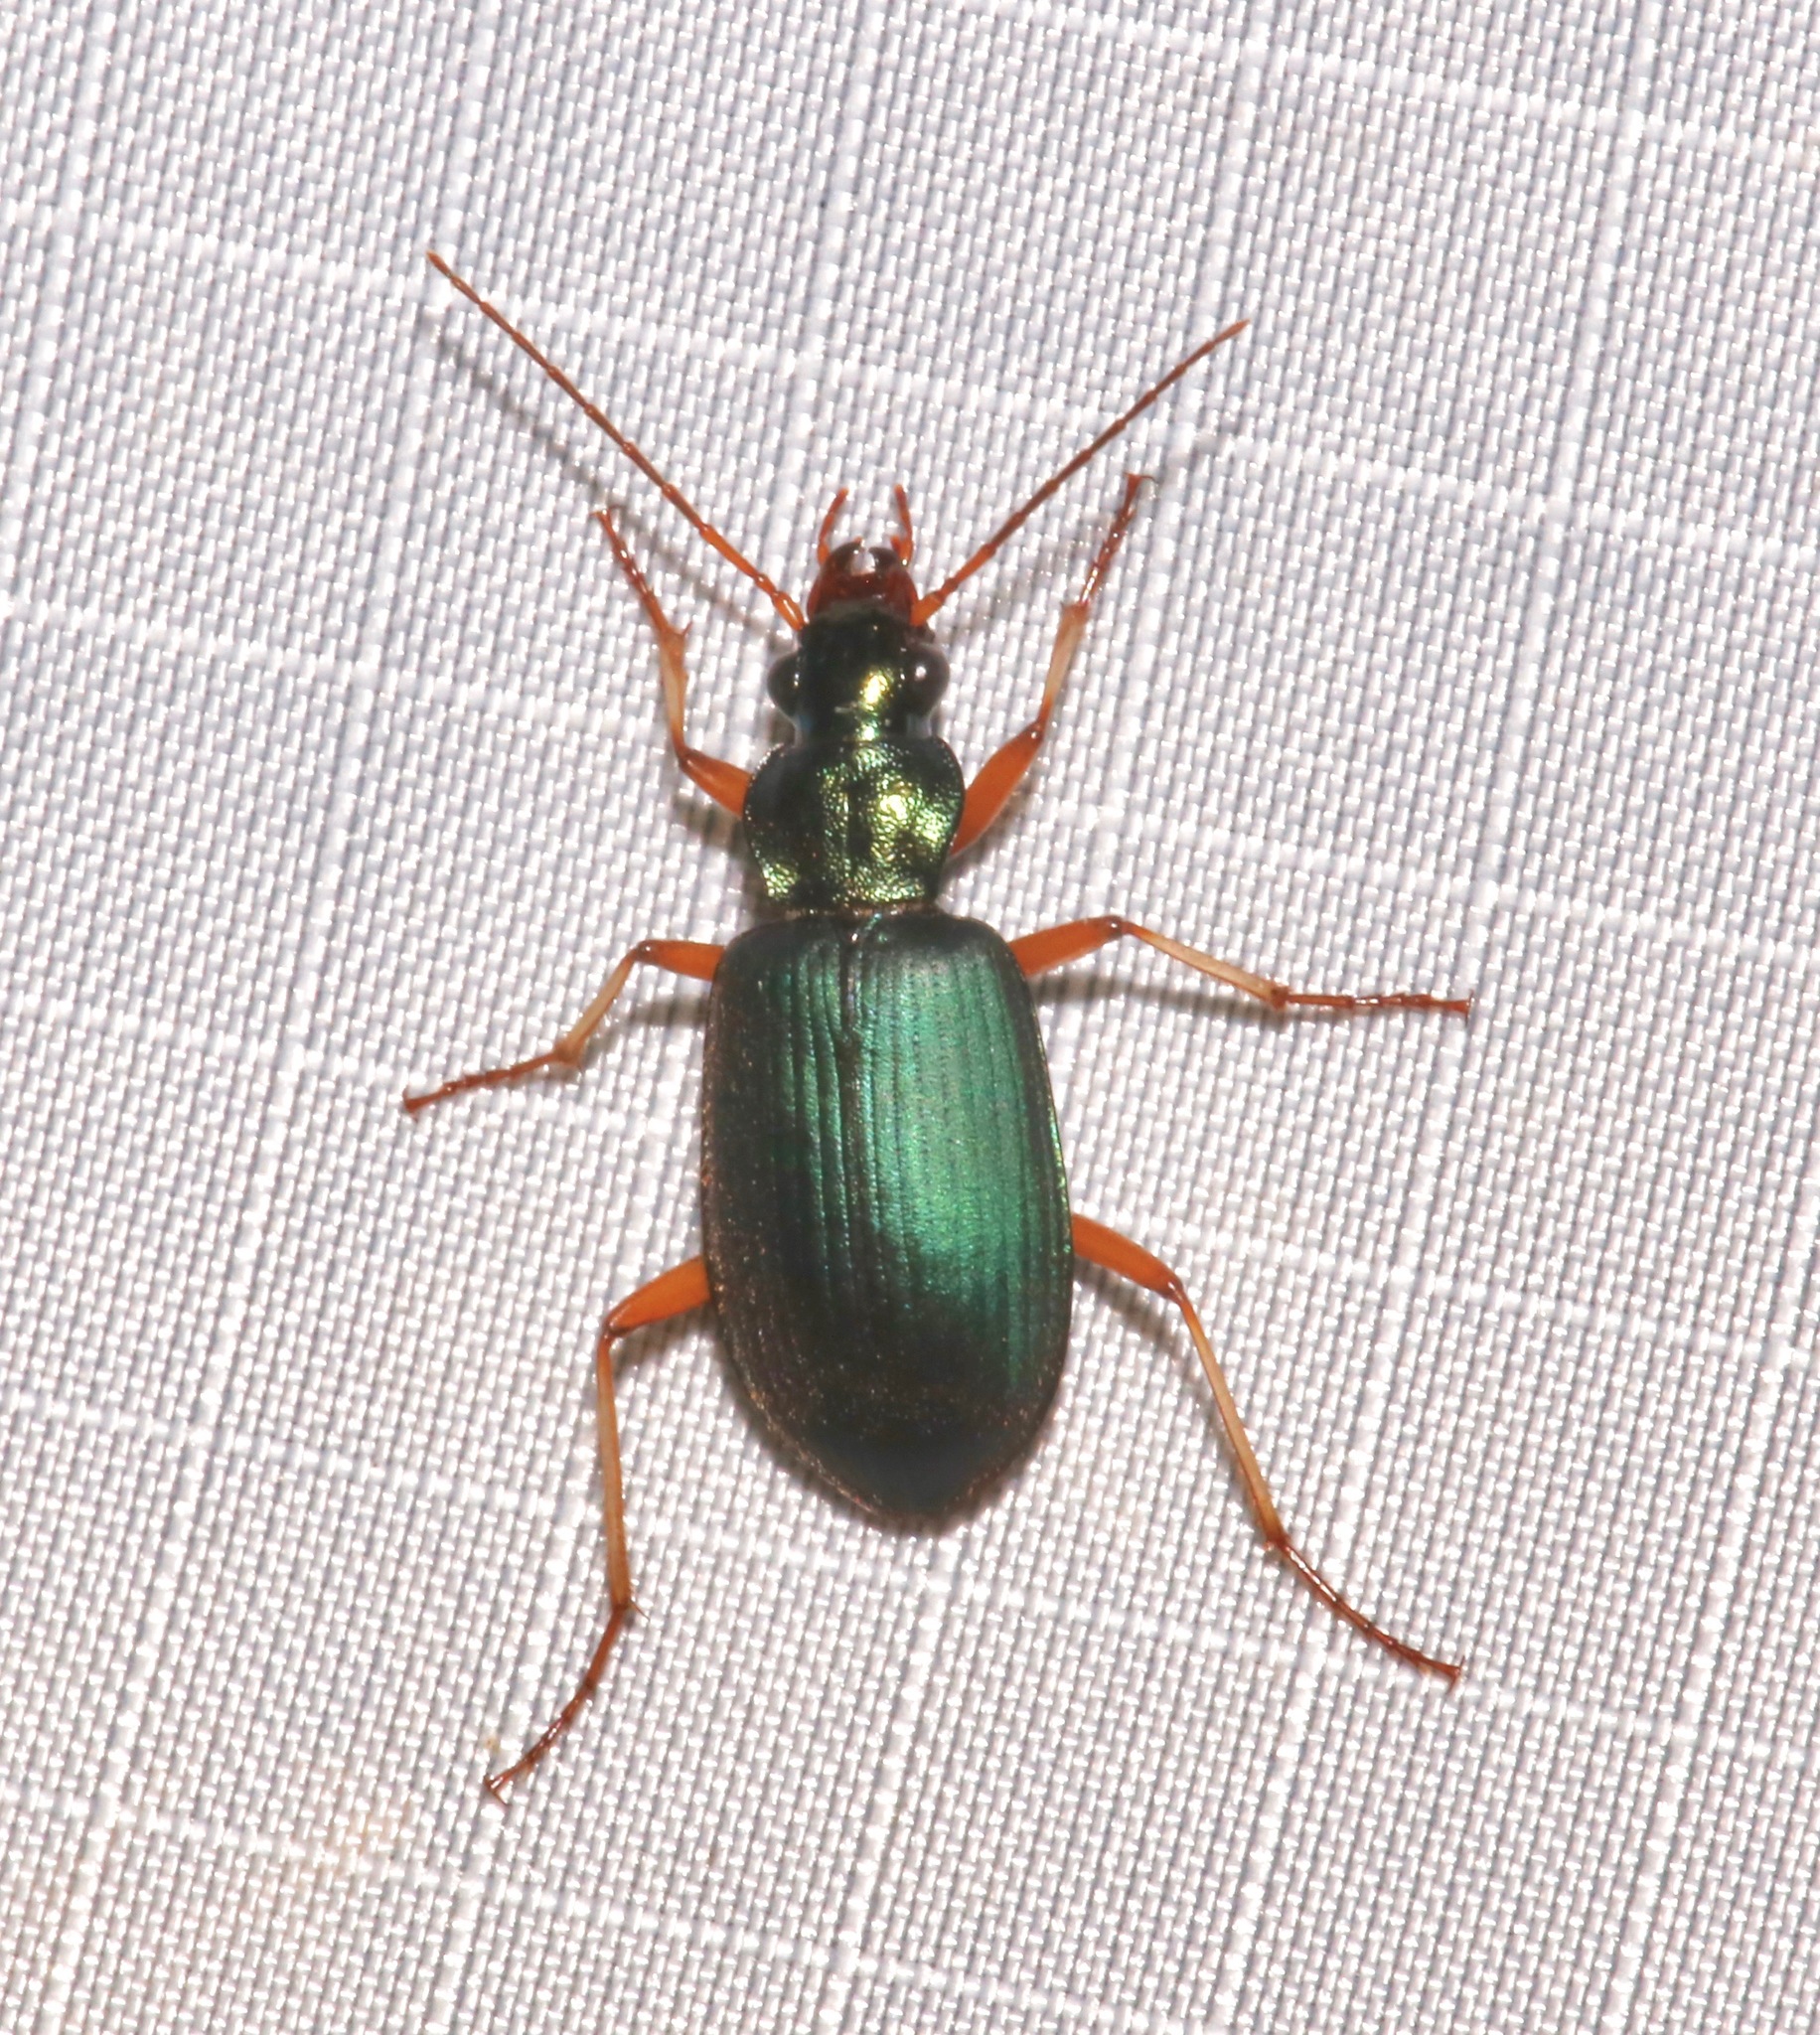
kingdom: Animalia
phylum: Arthropoda
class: Insecta
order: Coleoptera
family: Carabidae
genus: Chlaenius
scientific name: Chlaenius purpureus
